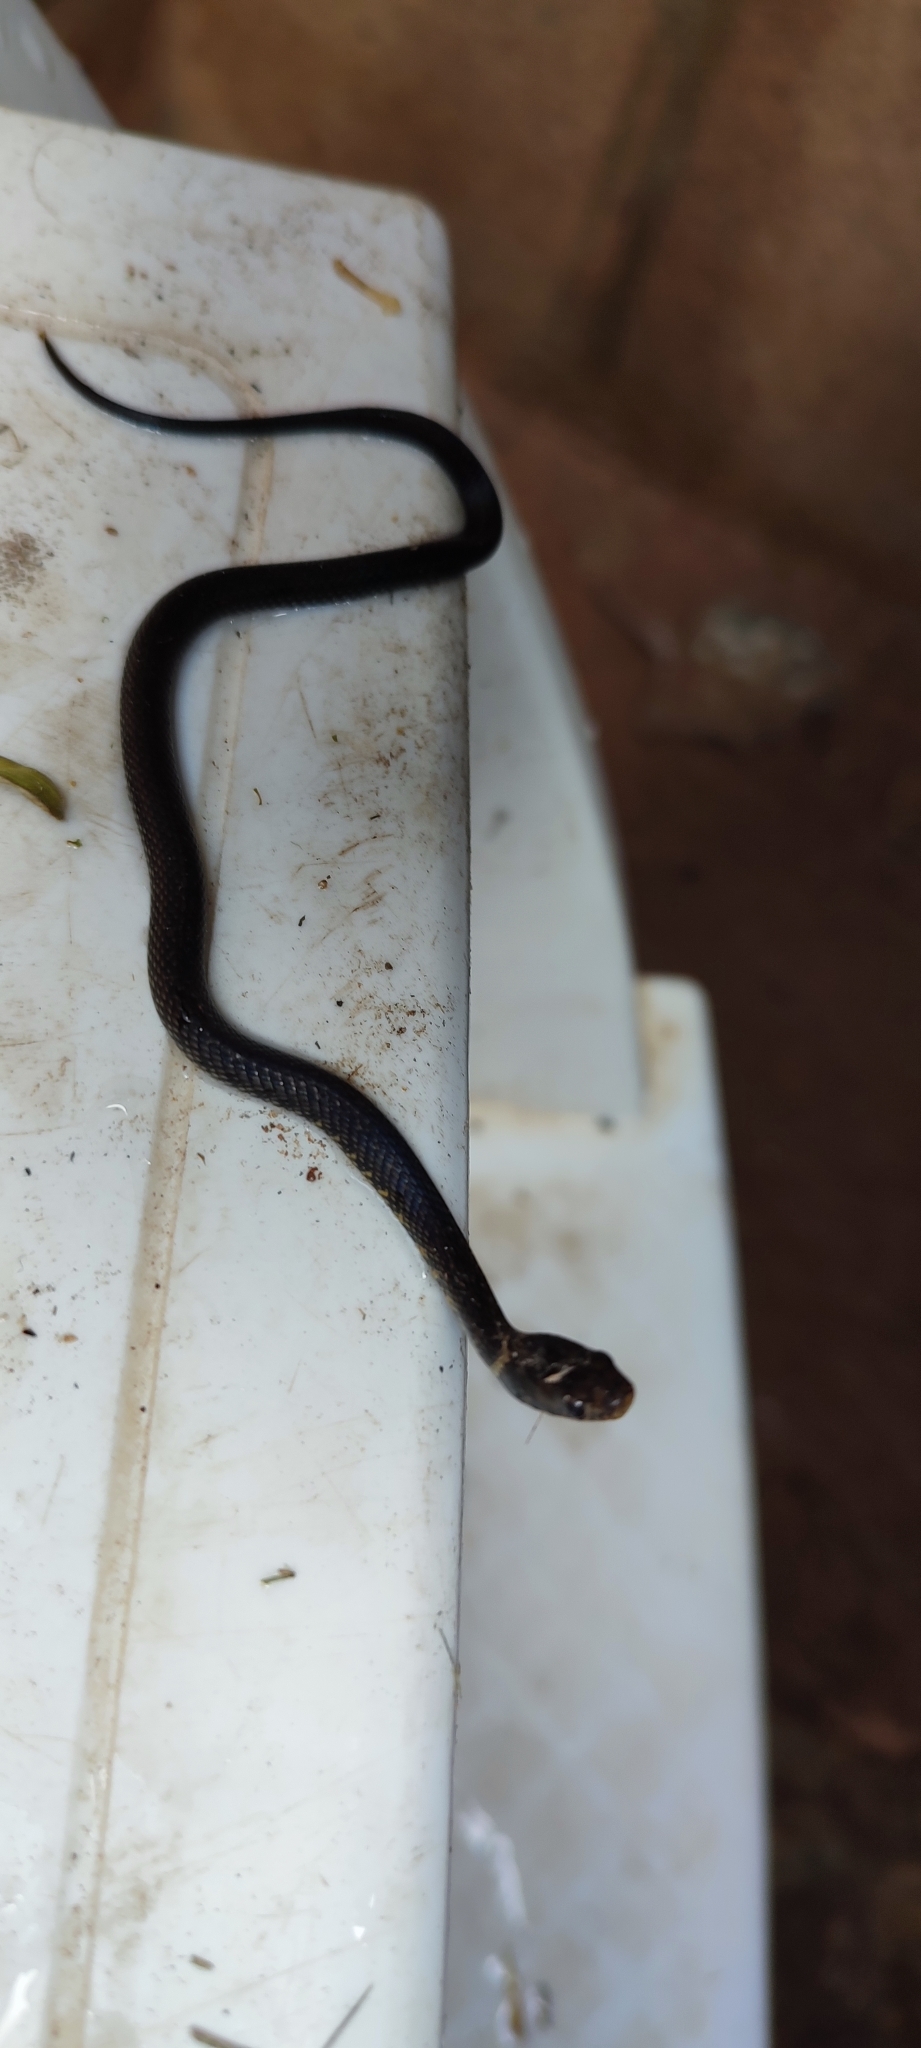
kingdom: Animalia
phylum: Chordata
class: Squamata
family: Colubridae
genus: Erythrolamprus
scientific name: Erythrolamprus miliaris
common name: Military ground snake
